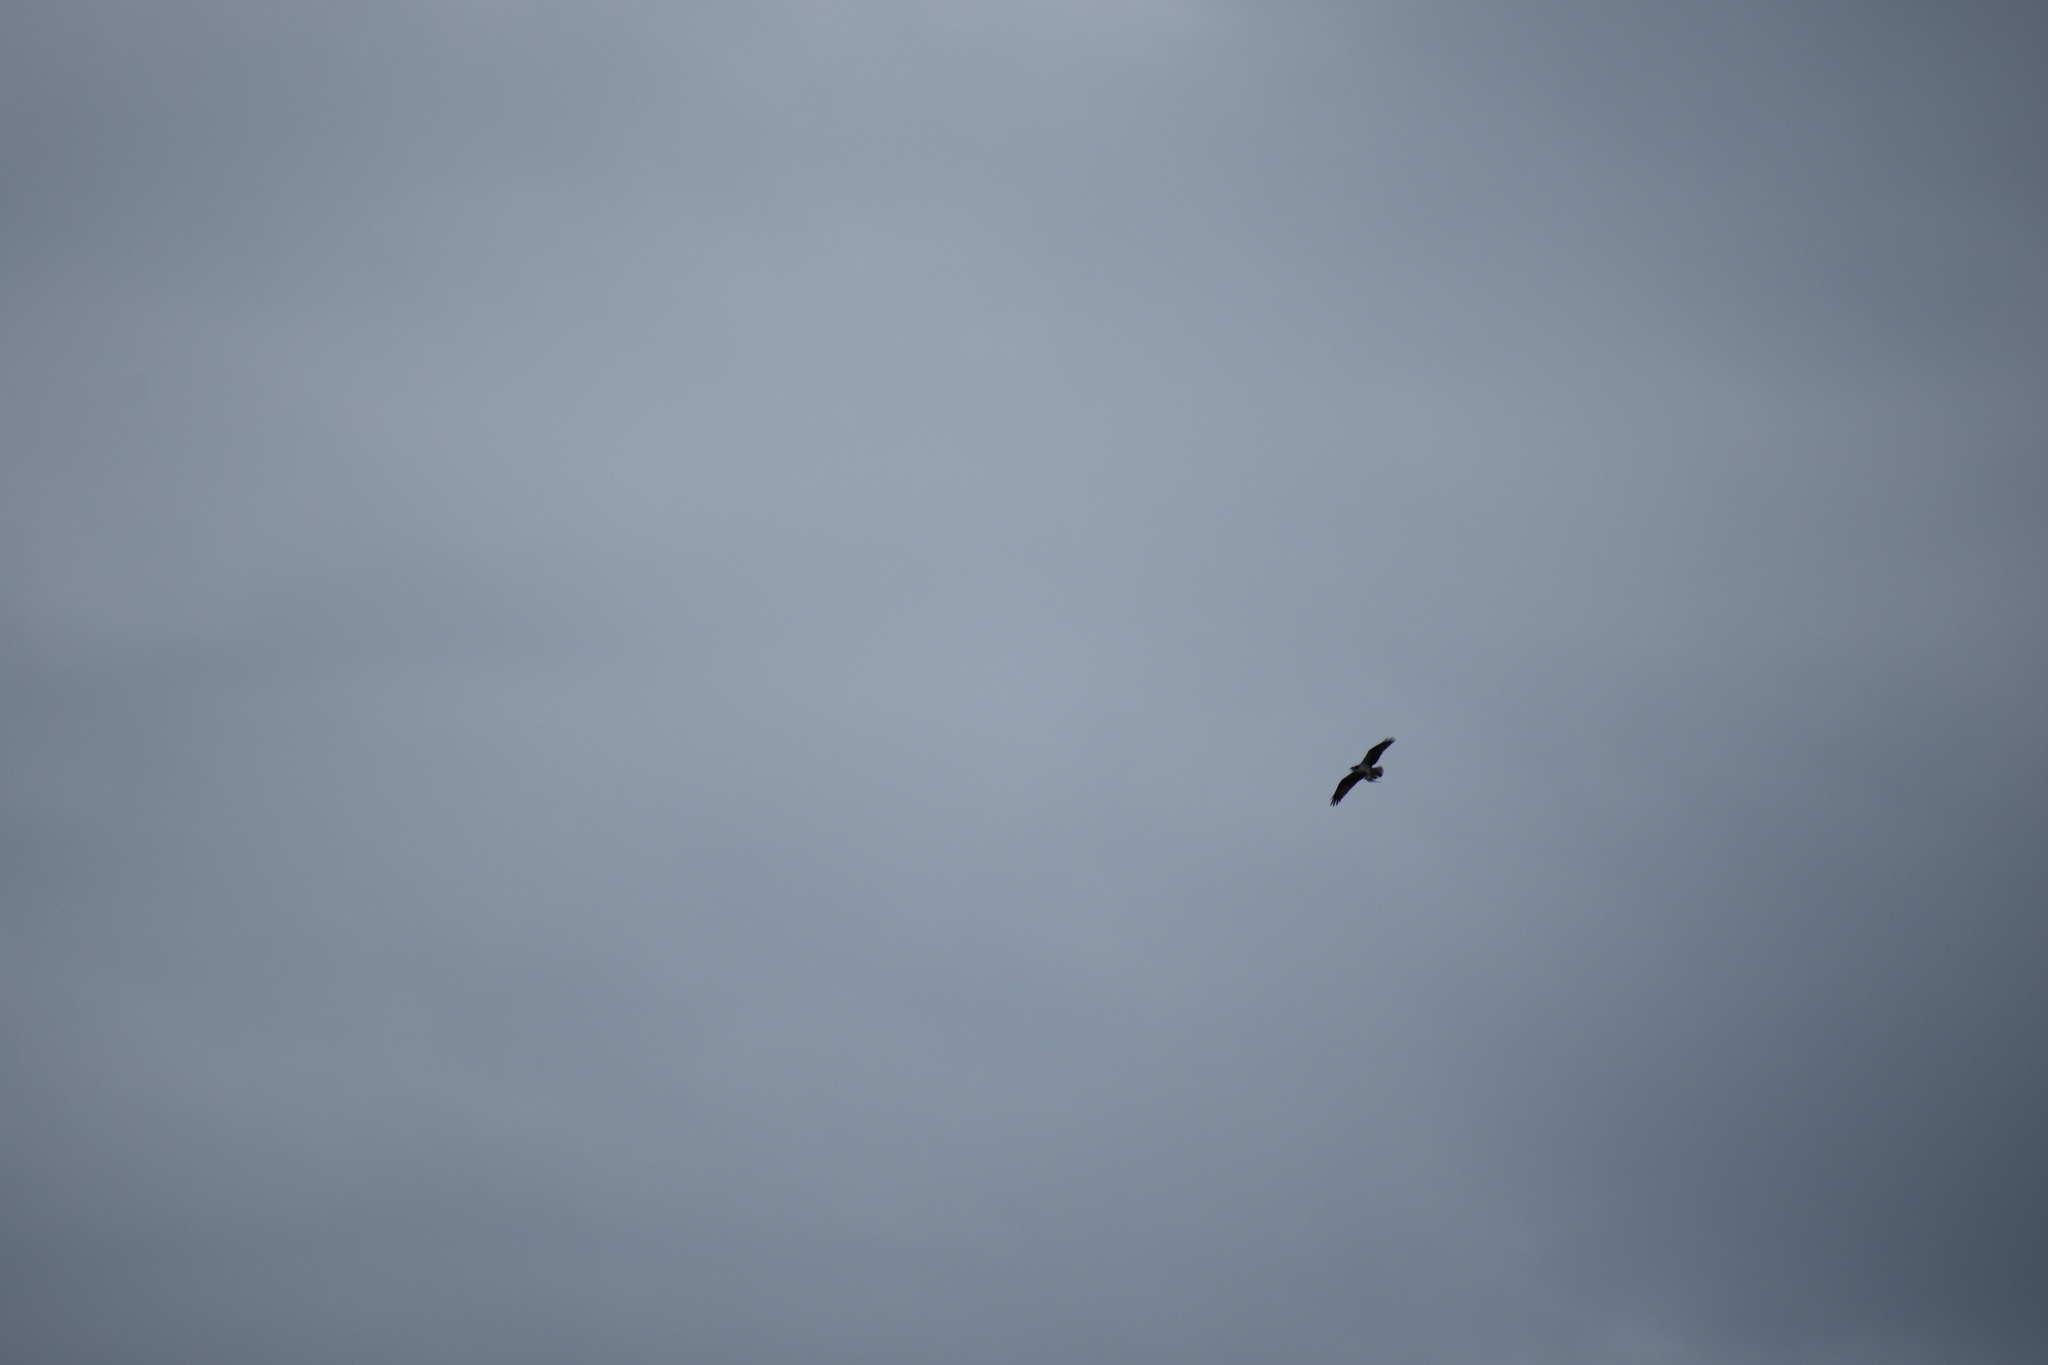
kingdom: Animalia
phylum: Chordata
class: Aves
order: Accipitriformes
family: Pandionidae
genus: Pandion
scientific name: Pandion haliaetus
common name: Osprey
